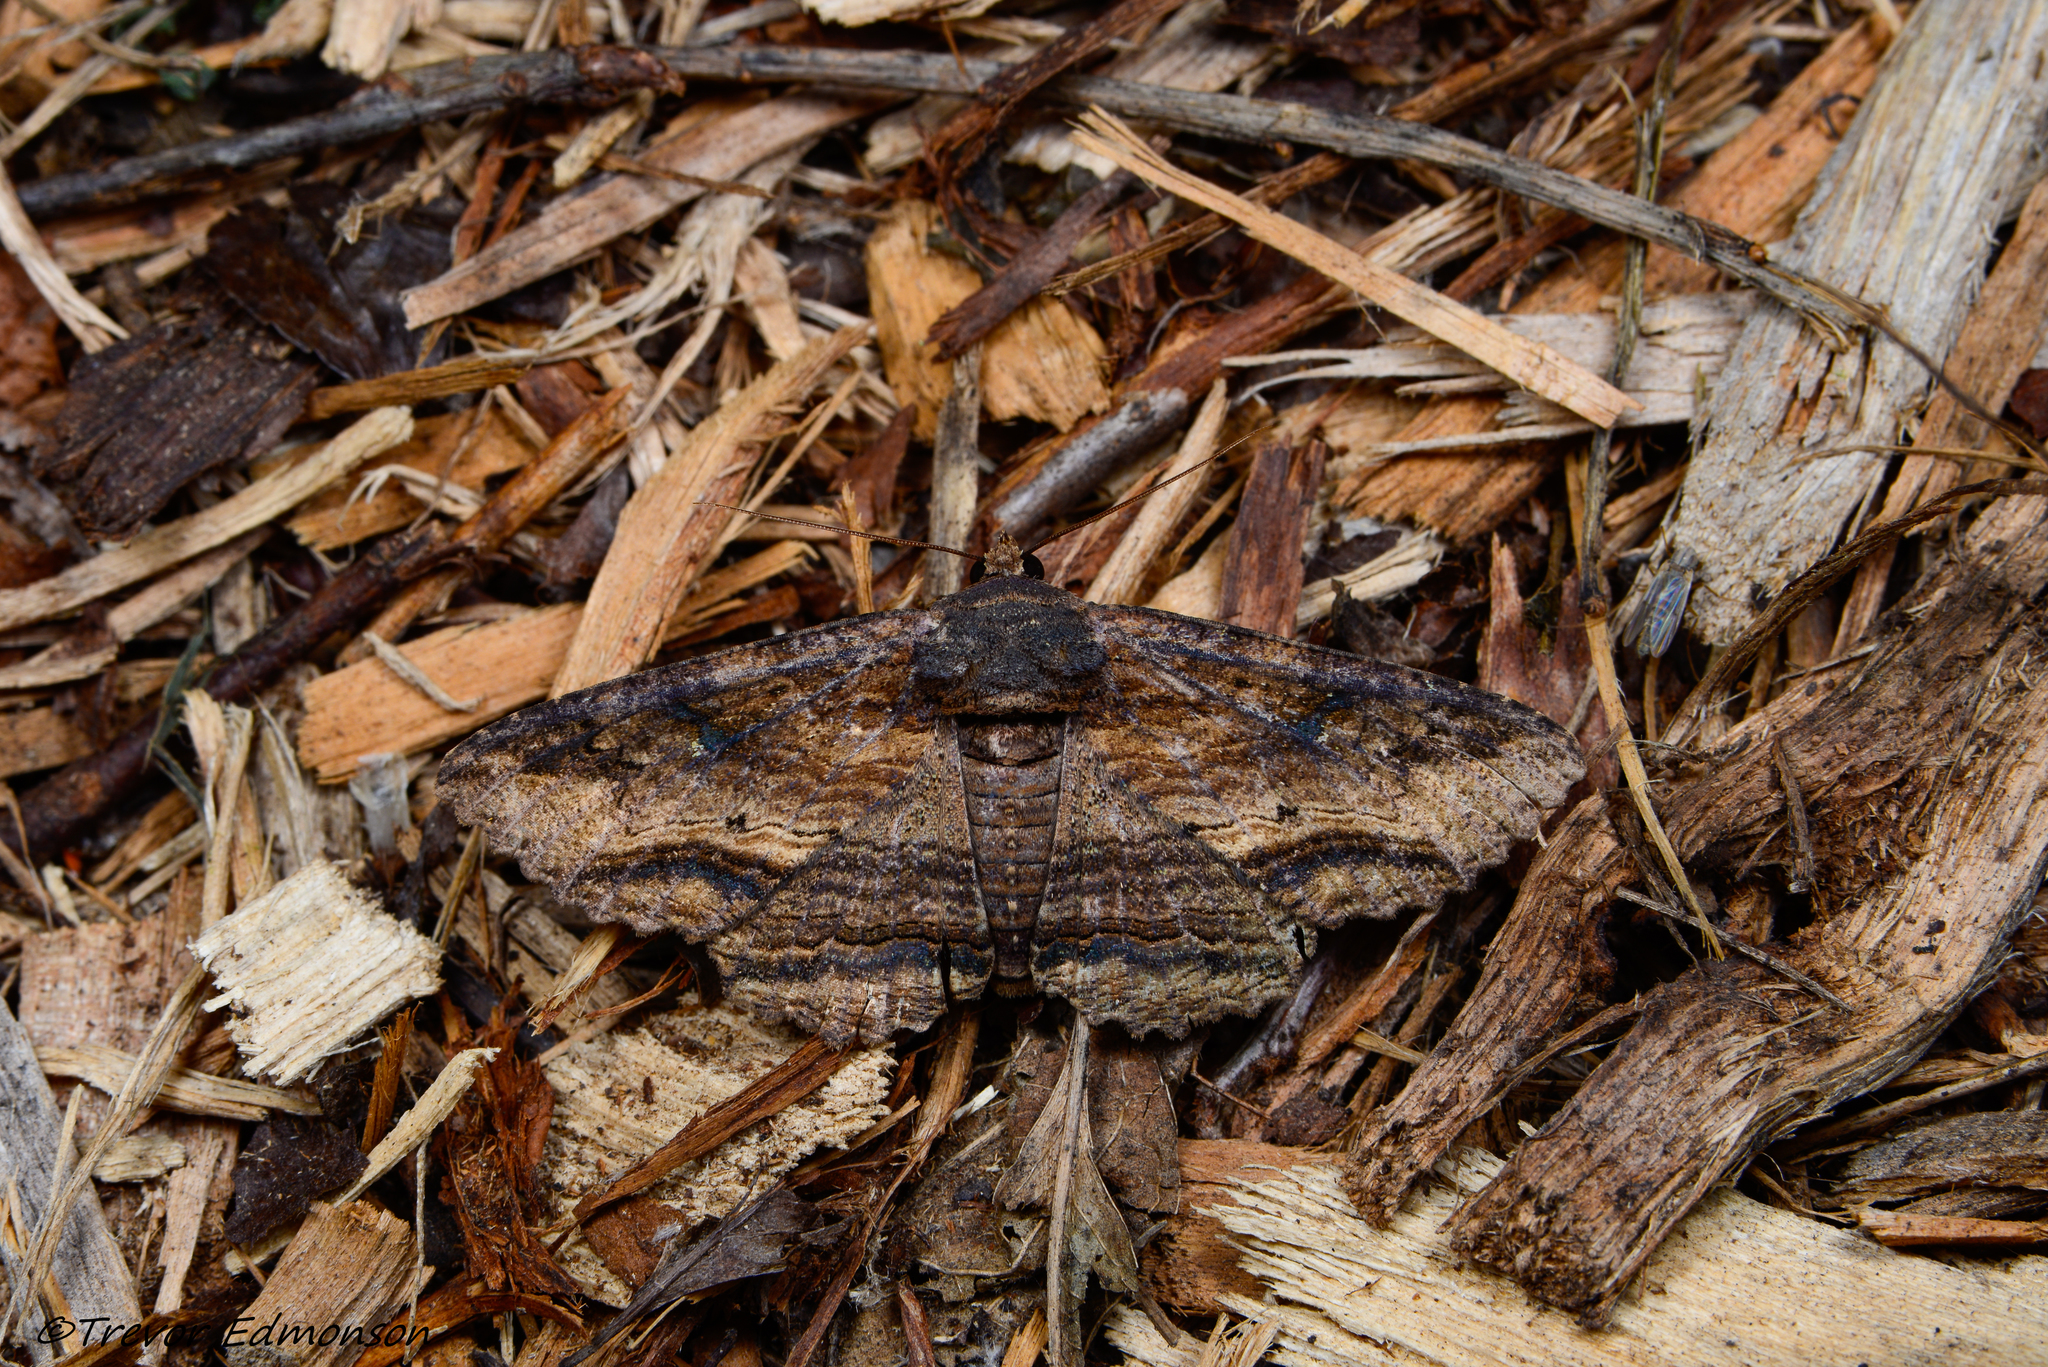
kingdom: Animalia
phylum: Arthropoda
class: Insecta
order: Lepidoptera
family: Erebidae
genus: Zale
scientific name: Zale lunata
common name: Lunate zale moth
